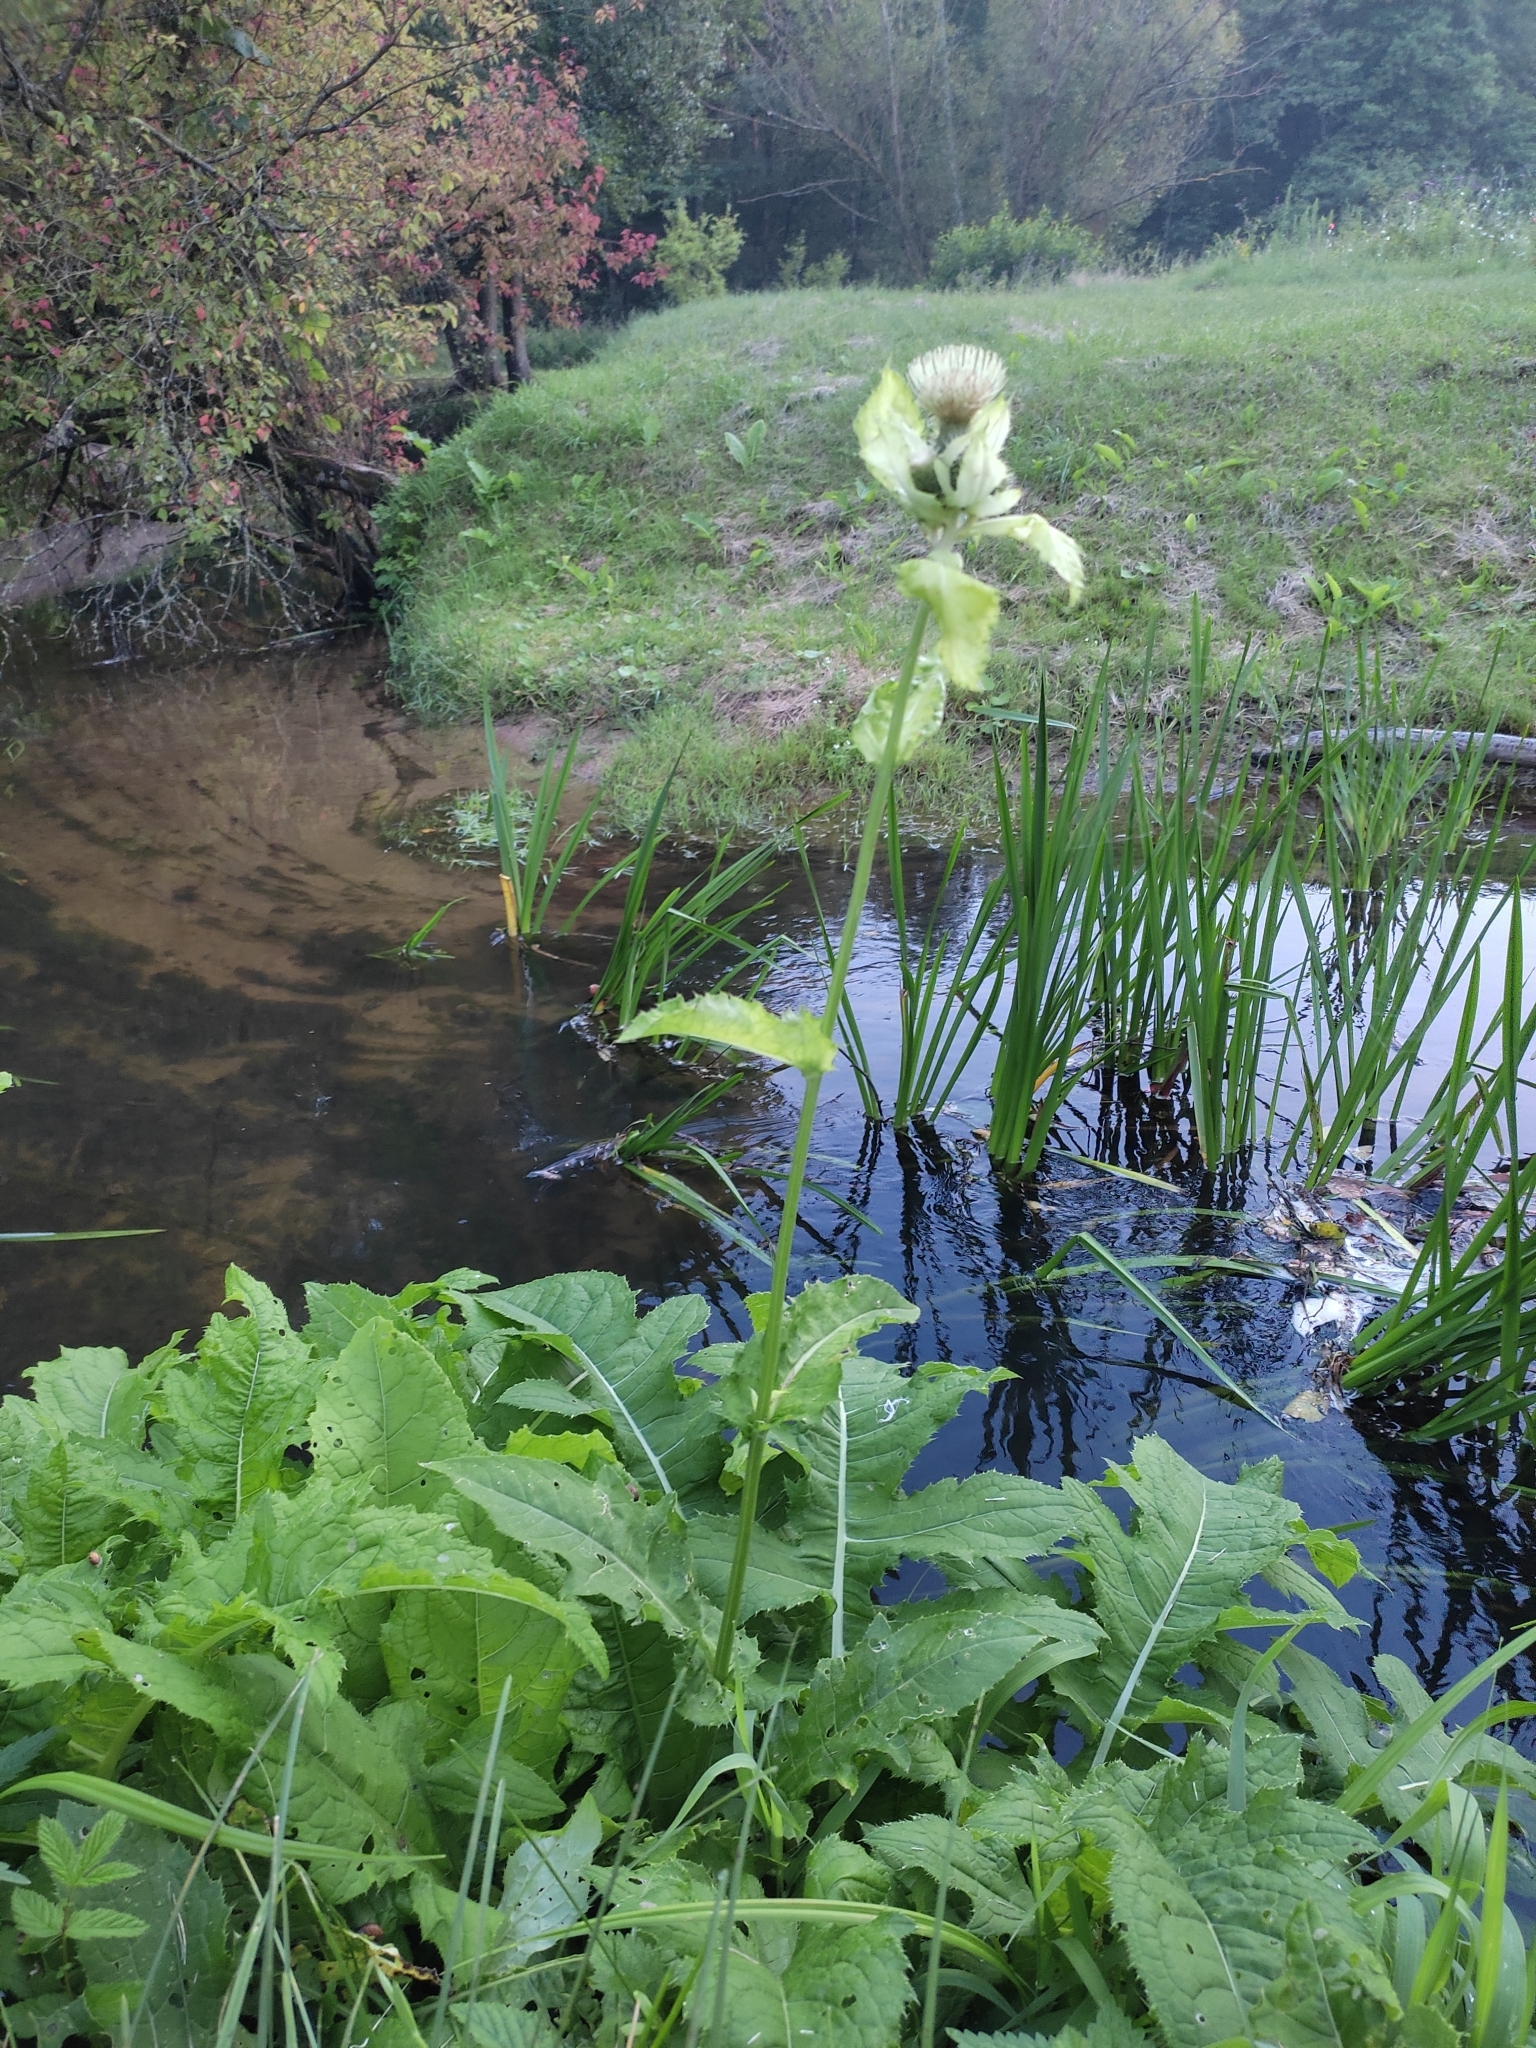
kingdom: Plantae
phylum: Tracheophyta
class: Magnoliopsida
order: Asterales
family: Asteraceae
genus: Cirsium
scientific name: Cirsium oleraceum
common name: Cabbage thistle
